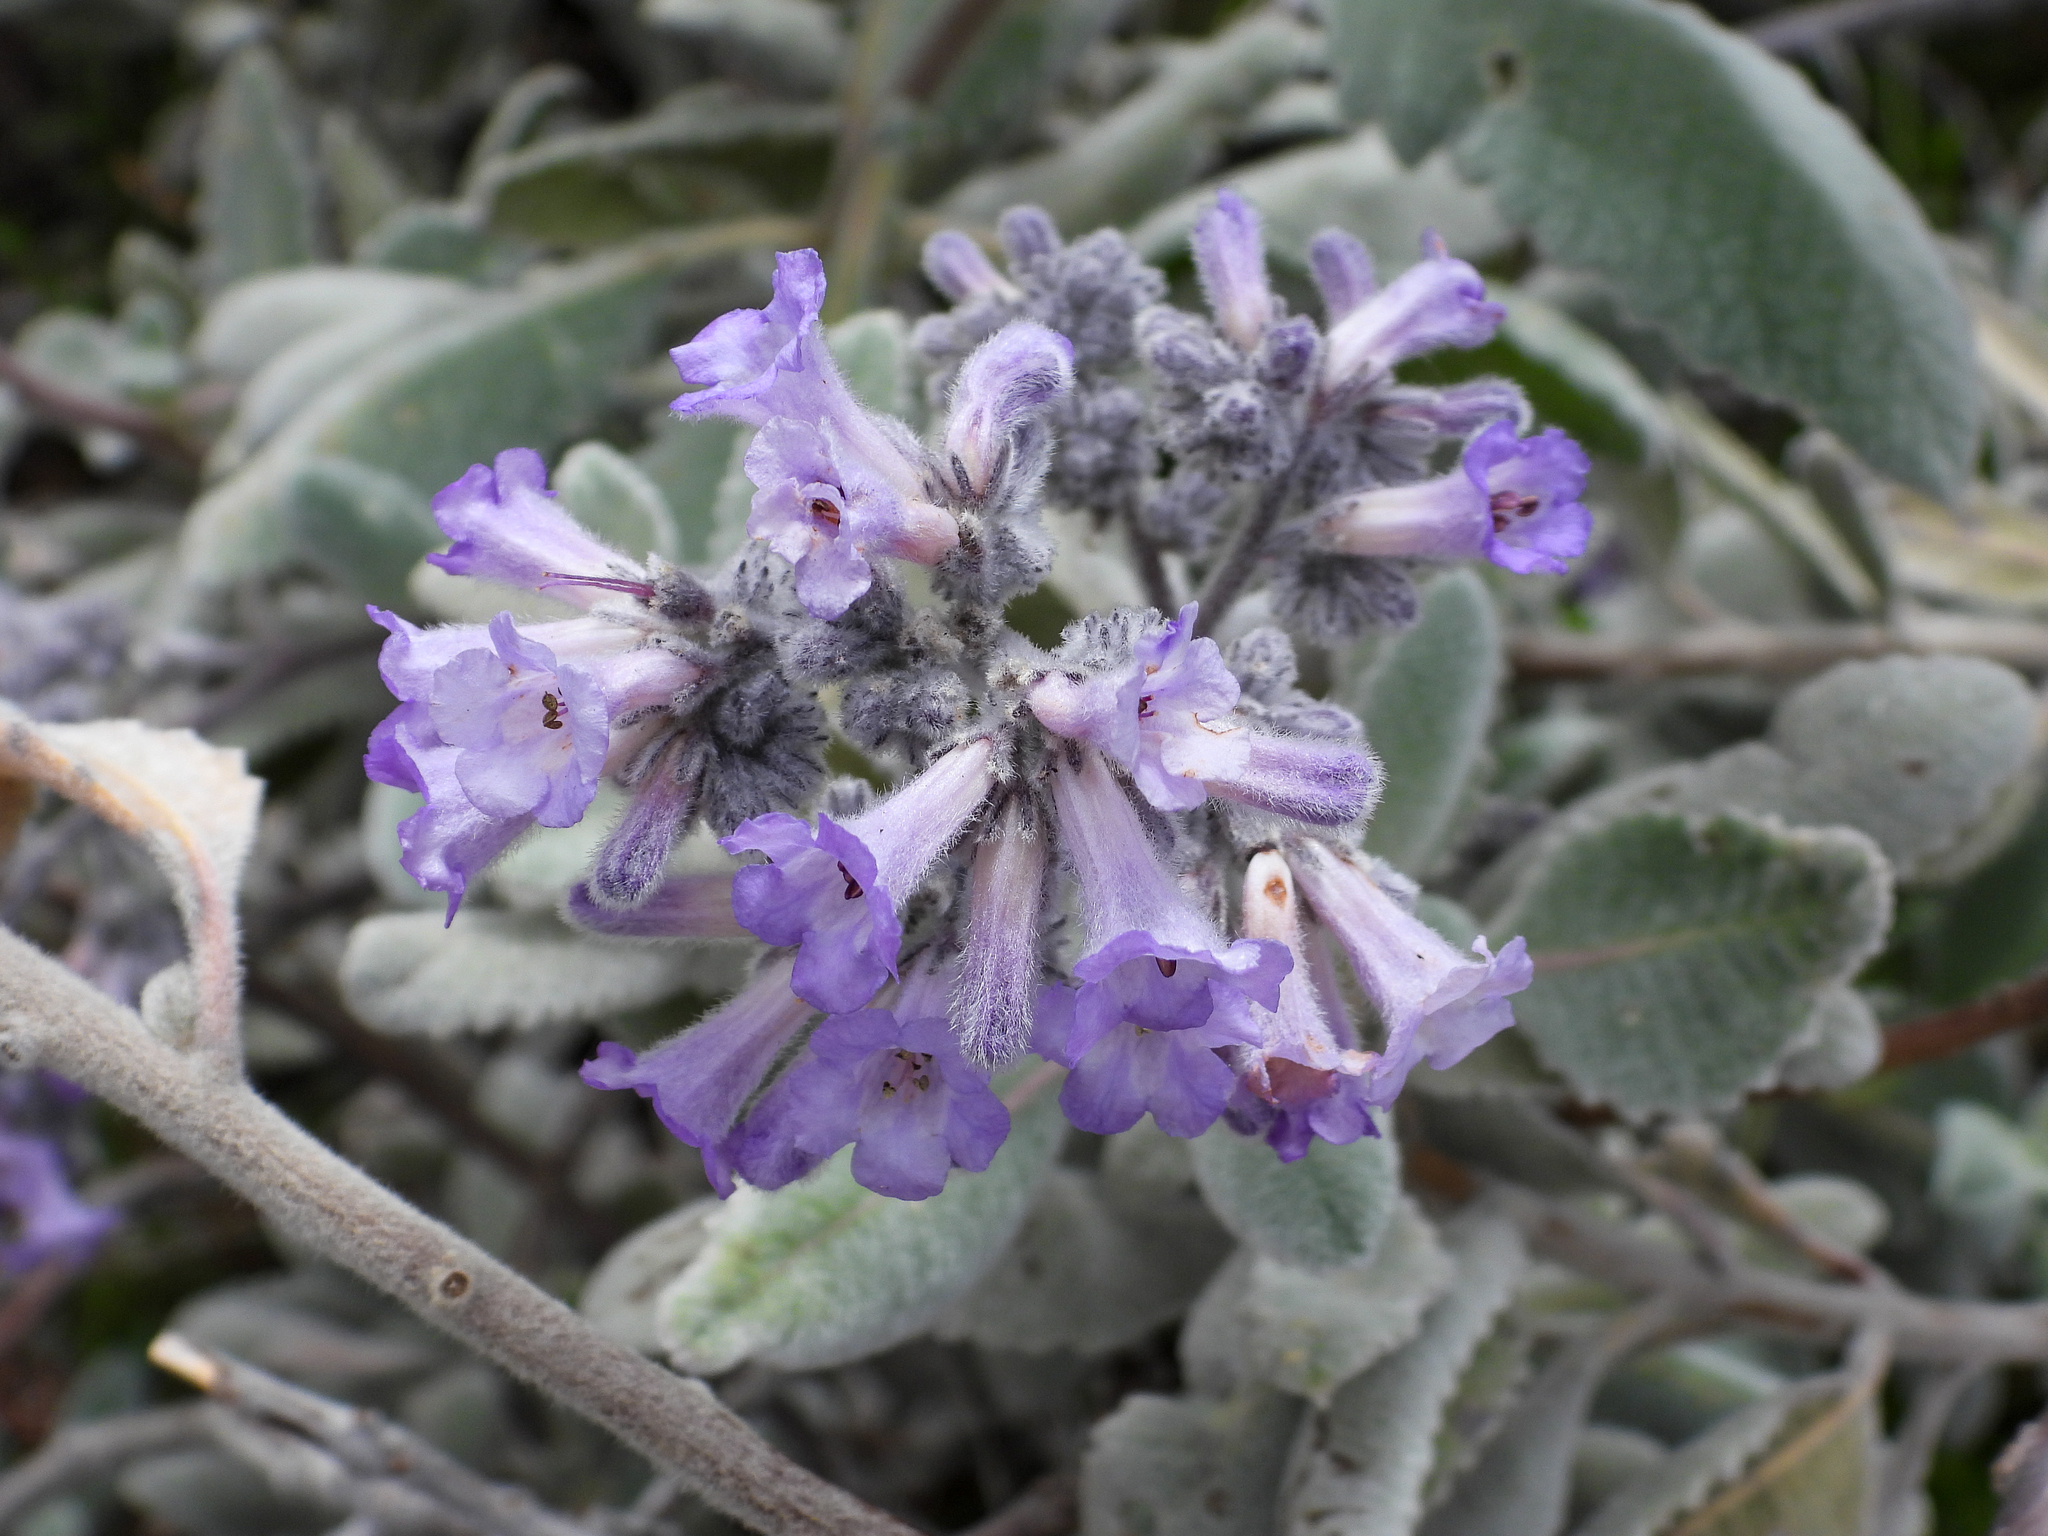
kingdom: Plantae
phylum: Tracheophyta
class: Magnoliopsida
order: Boraginales
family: Namaceae
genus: Eriodictyon
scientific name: Eriodictyon crassifolium
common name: Thick-leaf yerba-santa
